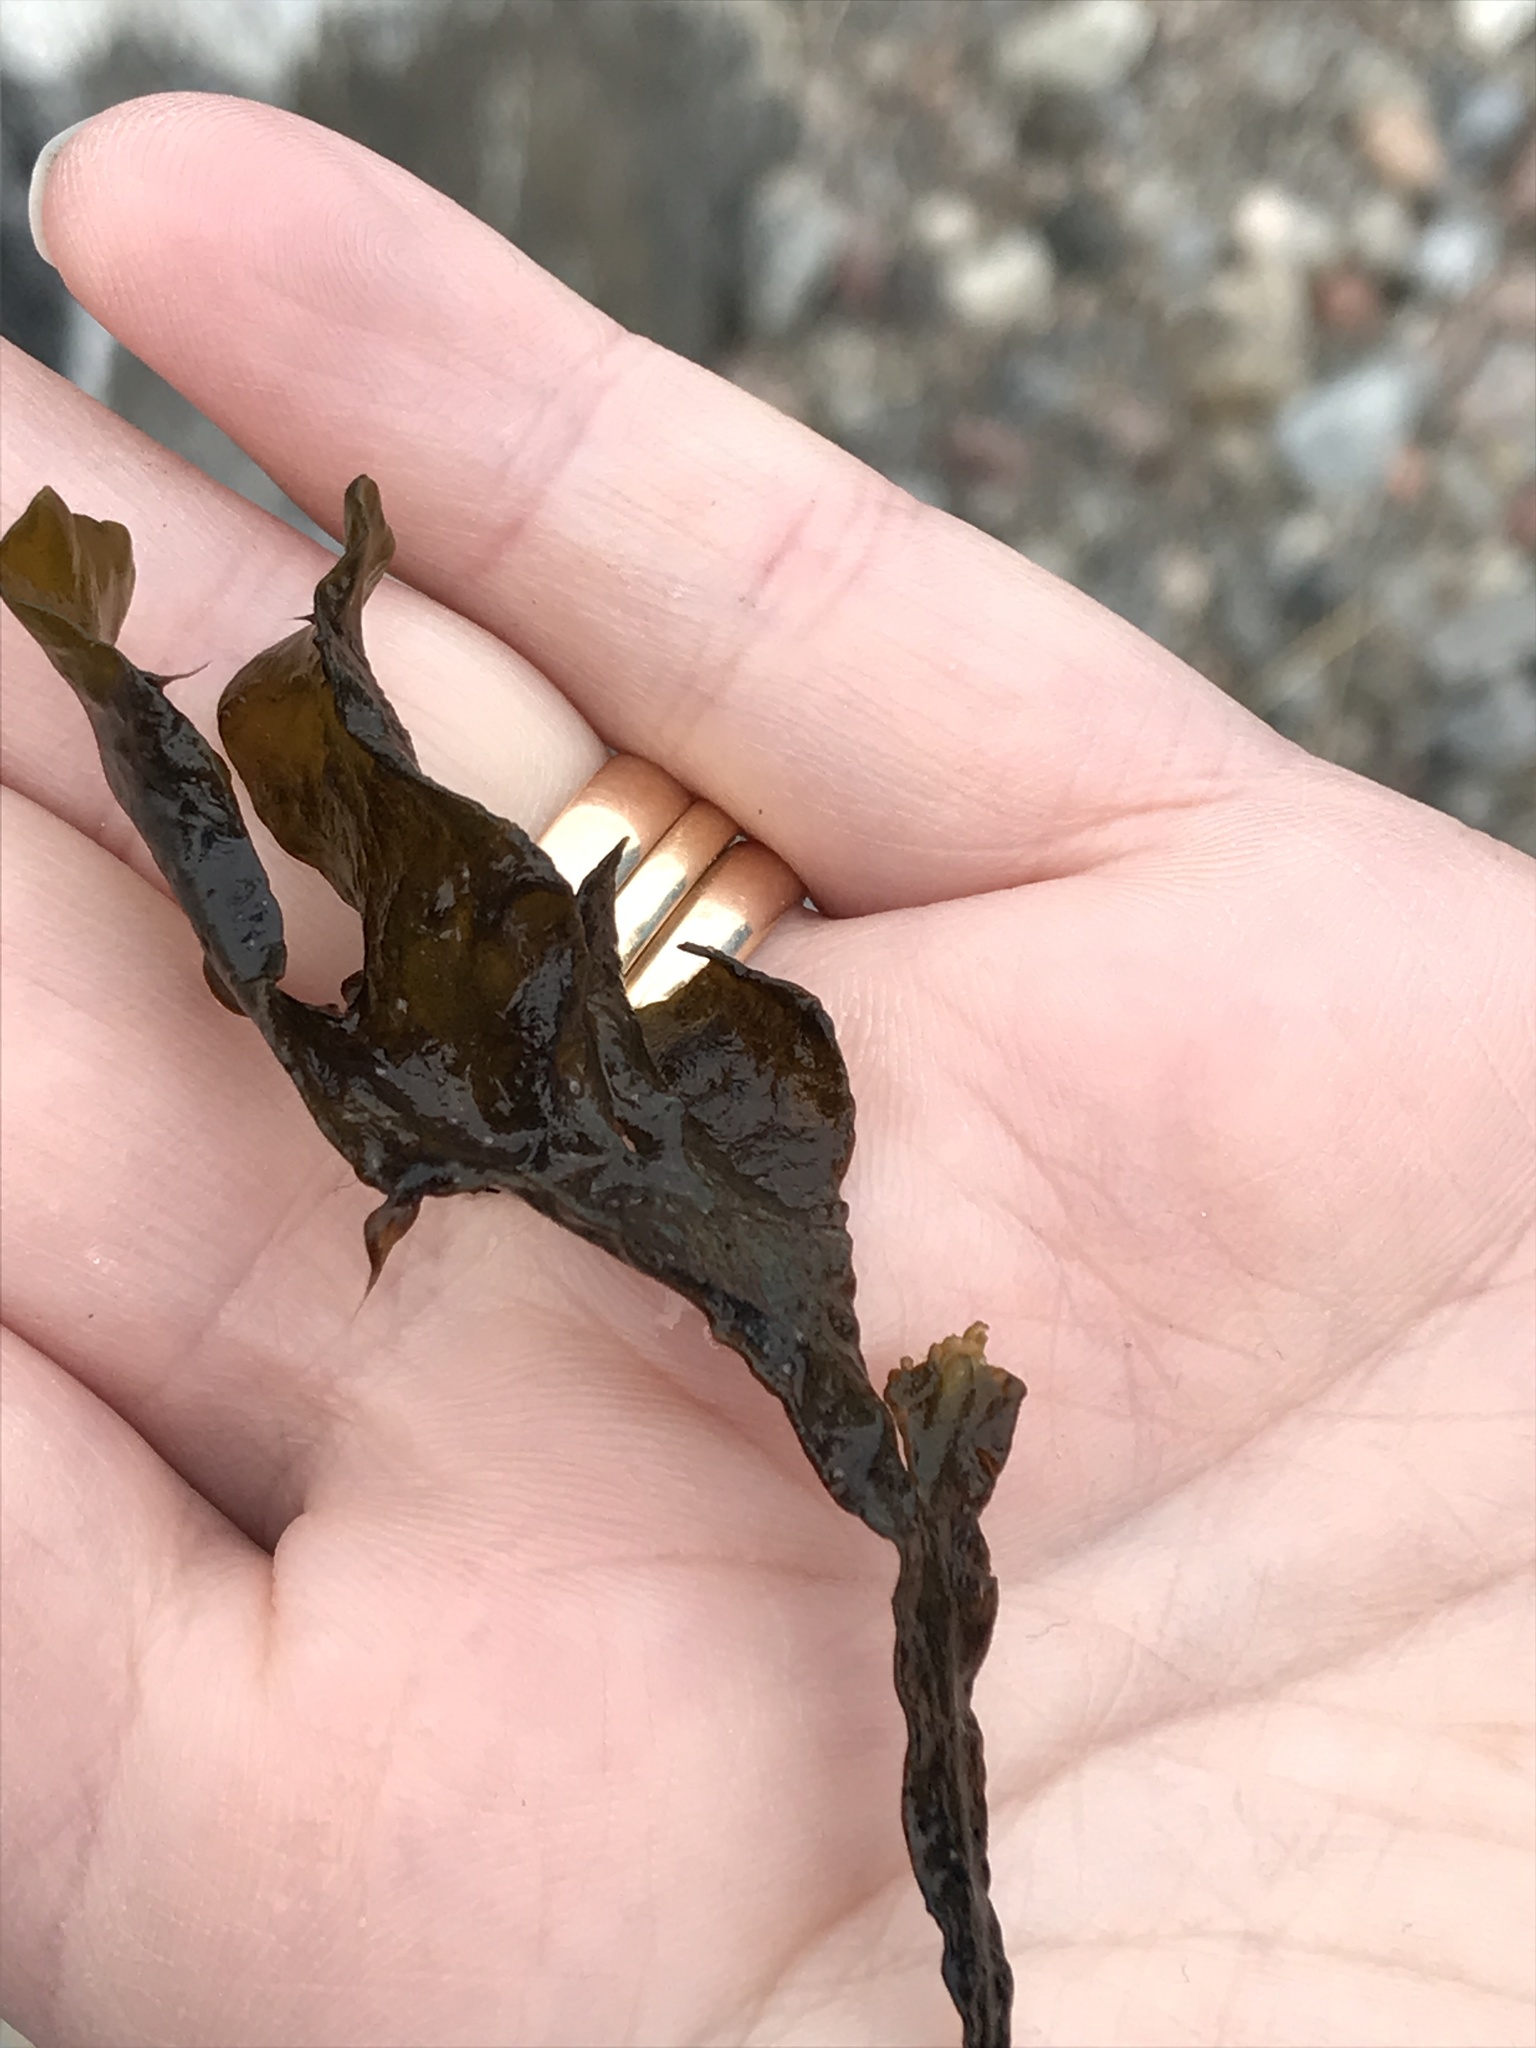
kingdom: Chromista
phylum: Ochrophyta
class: Phaeophyceae
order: Fucales
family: Fucaceae
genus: Fucus
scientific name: Fucus vesiculosus
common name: Bladder wrack
